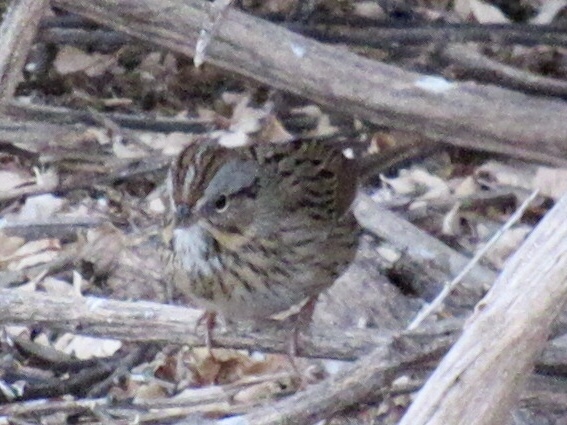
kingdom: Animalia
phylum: Chordata
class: Aves
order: Passeriformes
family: Passerellidae
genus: Melospiza
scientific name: Melospiza lincolnii
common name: Lincoln's sparrow
